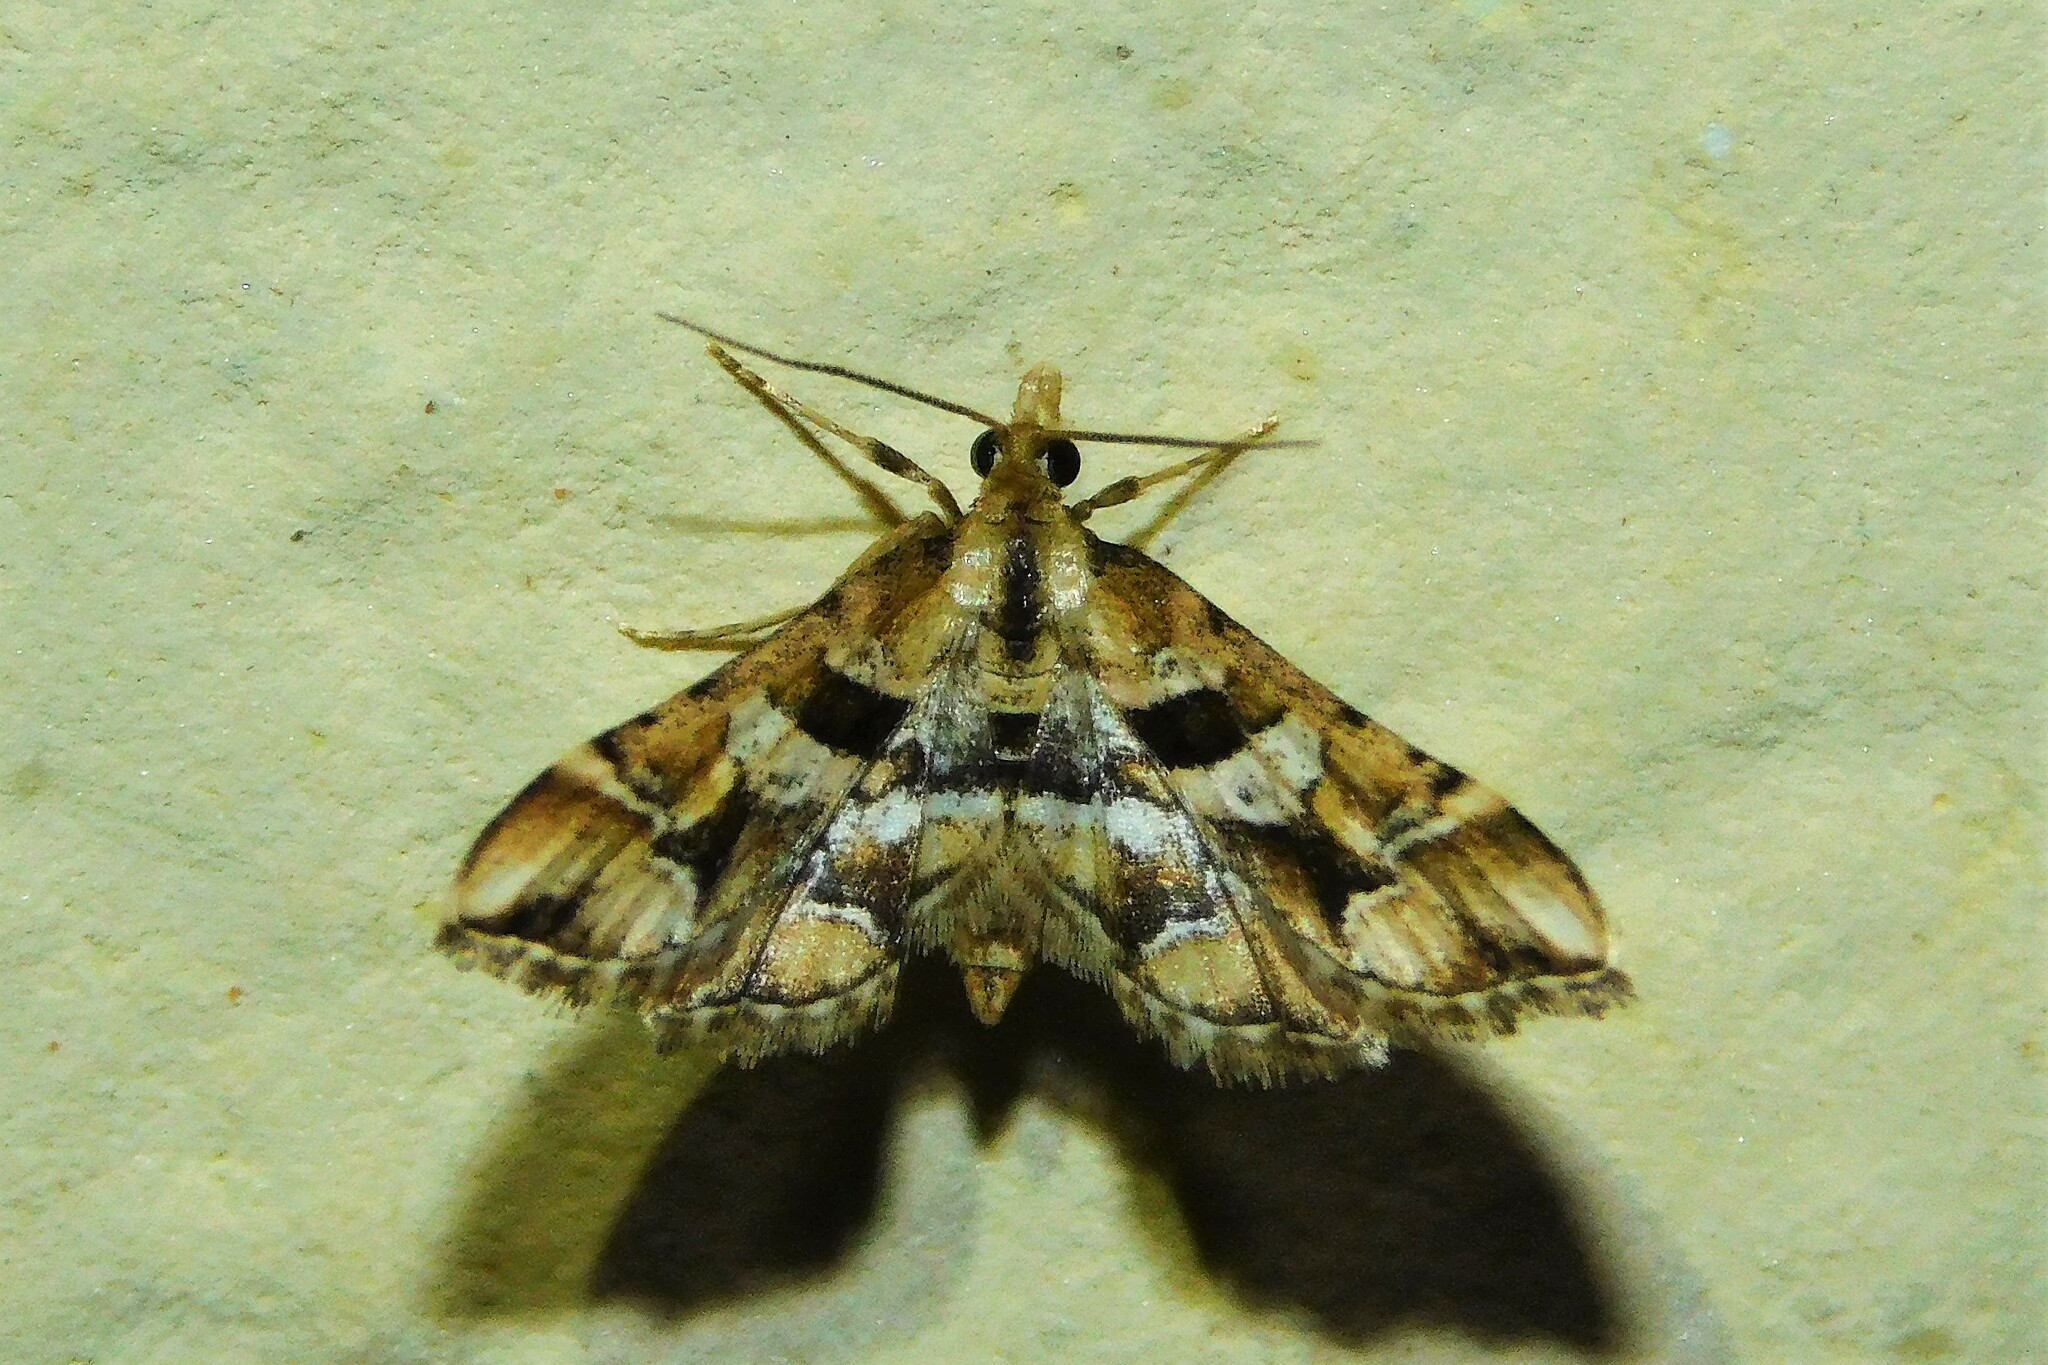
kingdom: Animalia
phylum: Arthropoda
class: Insecta
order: Lepidoptera
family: Crambidae
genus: Diasemia
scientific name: Diasemia lunalis
